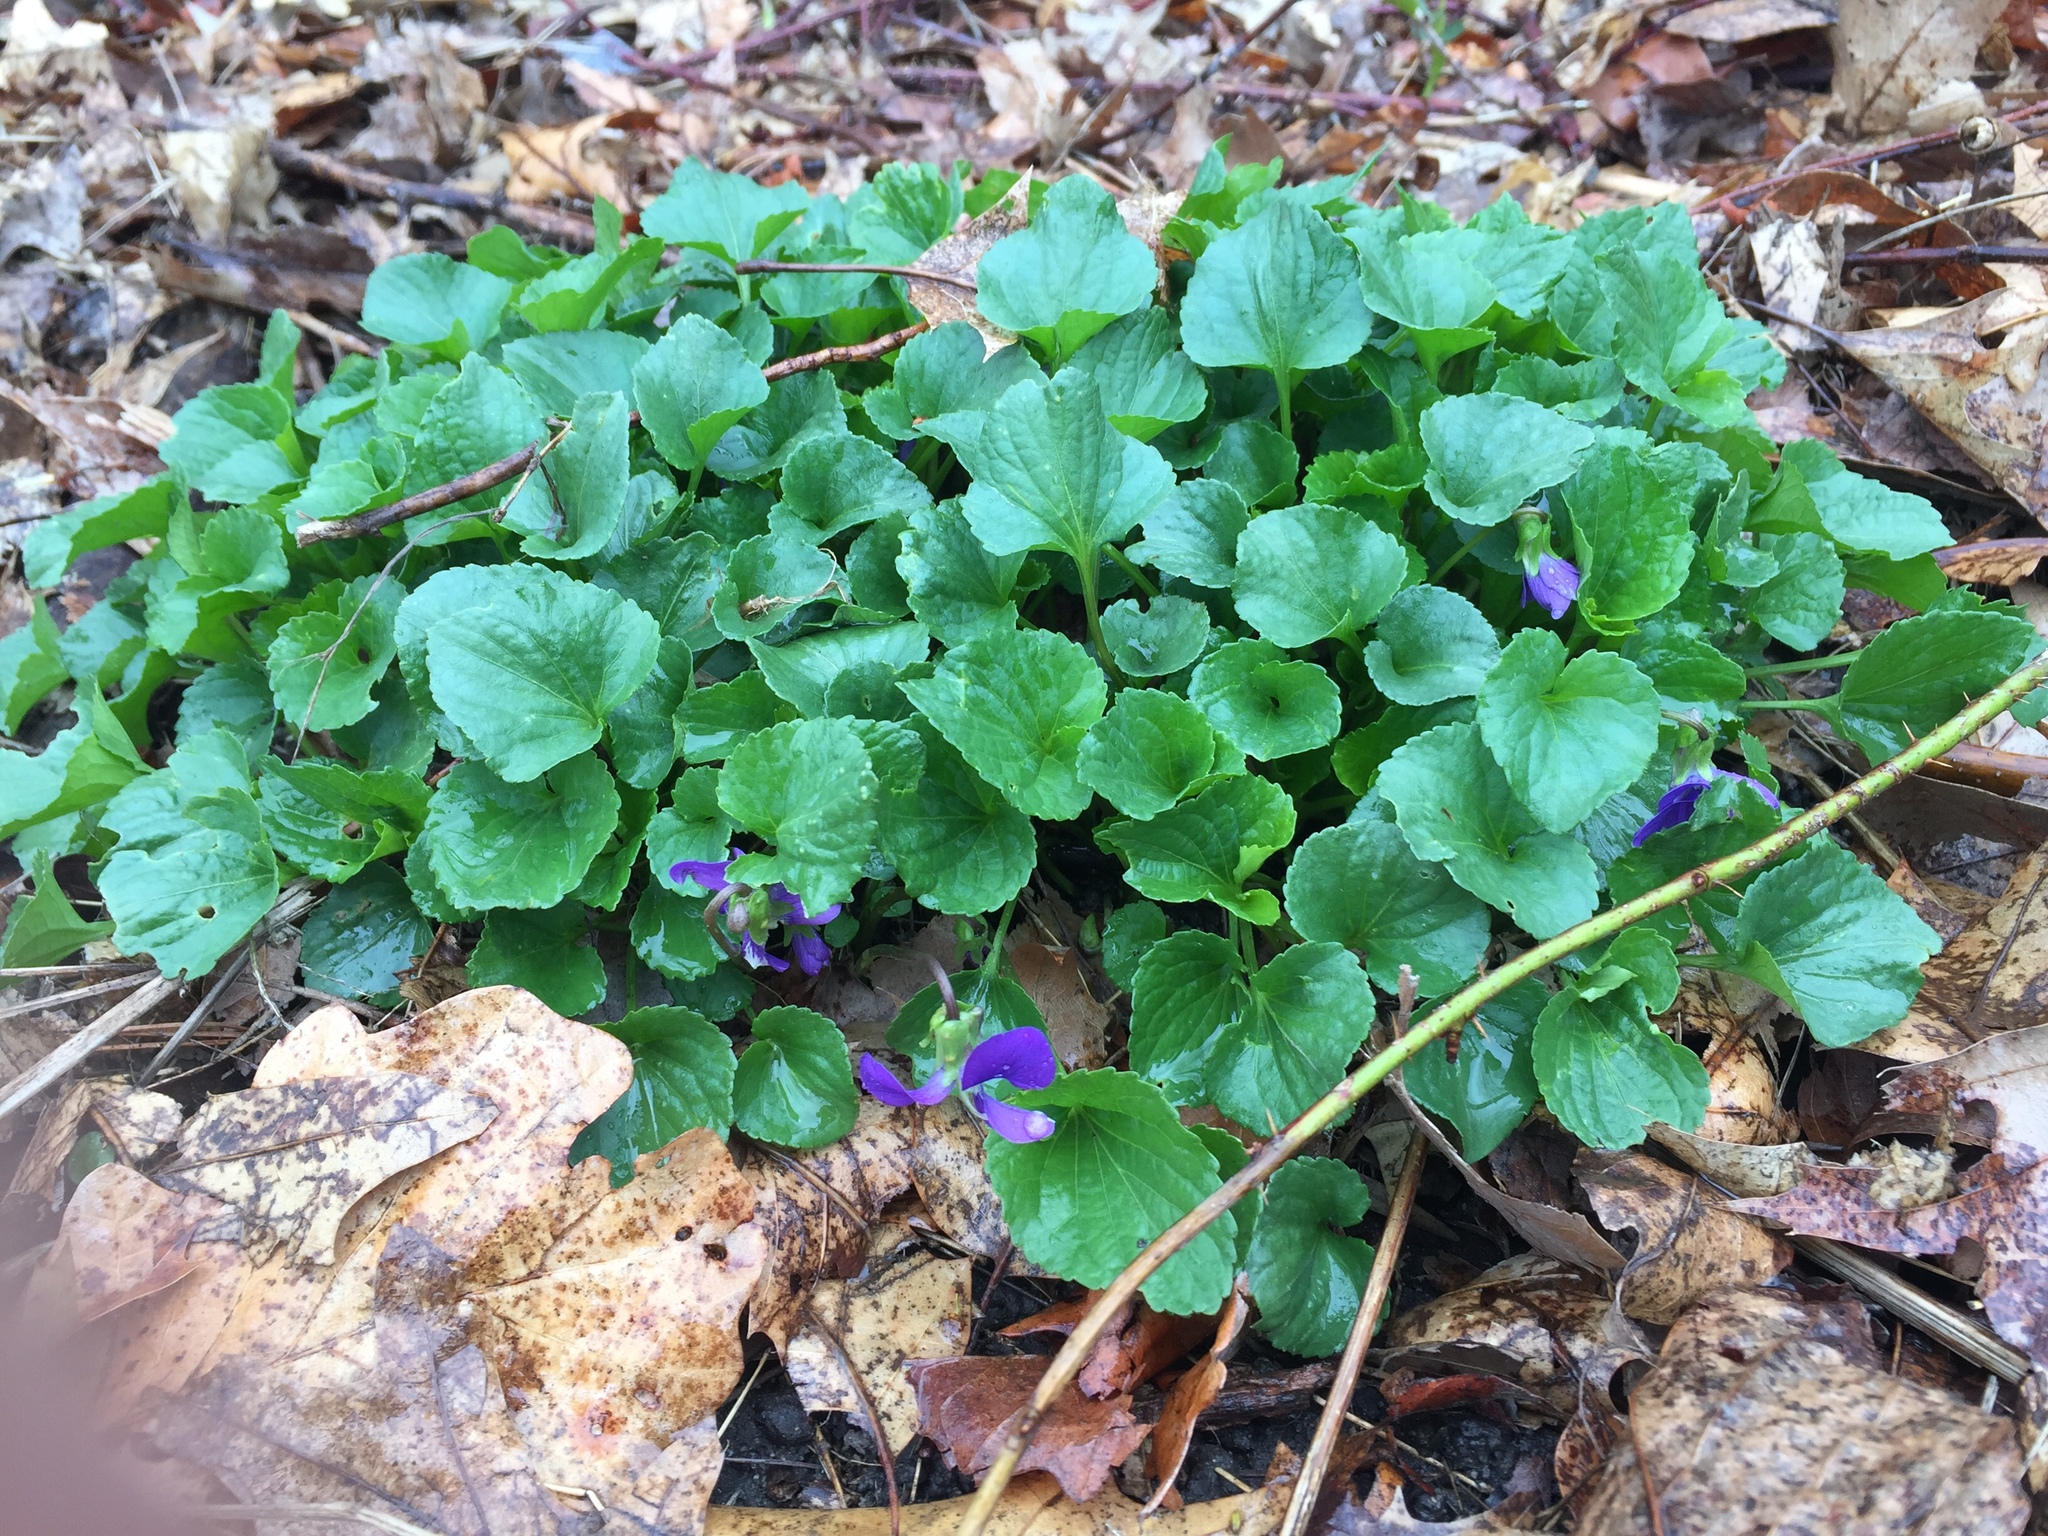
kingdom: Plantae
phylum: Tracheophyta
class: Magnoliopsida
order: Malpighiales
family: Violaceae
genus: Viola
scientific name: Viola sororia
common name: Dooryard violet
